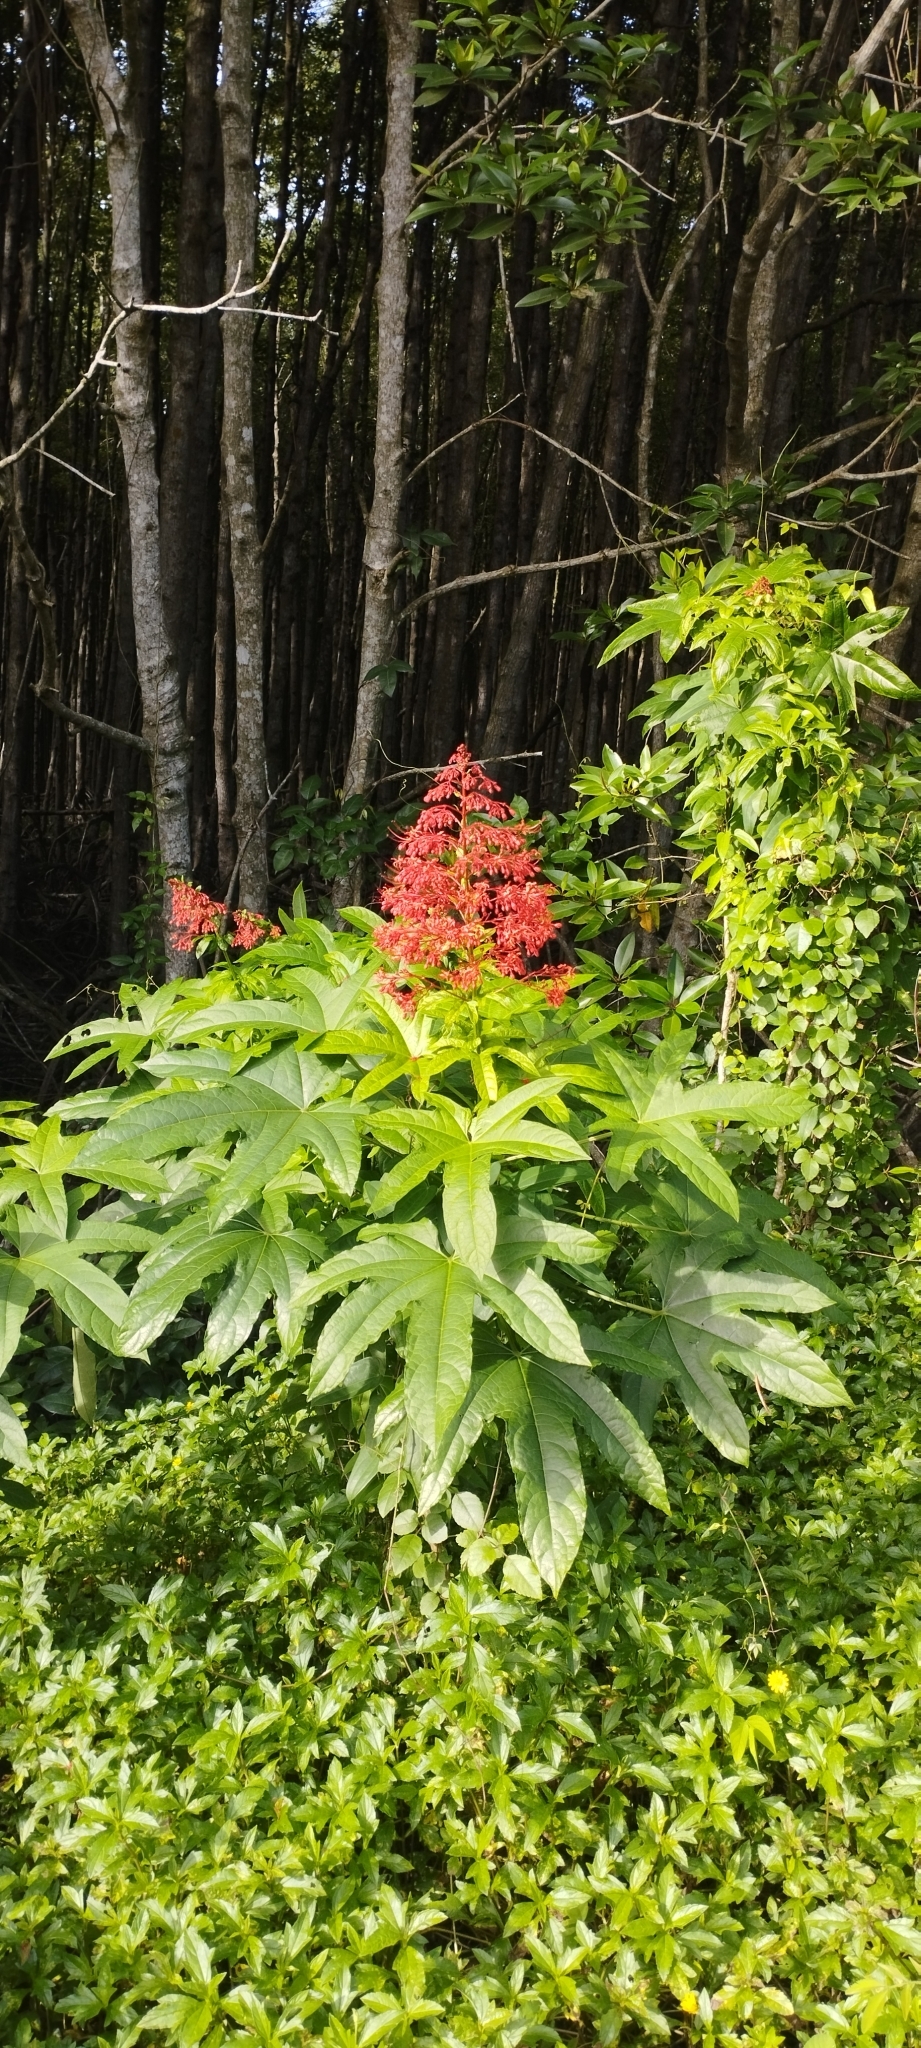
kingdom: Plantae
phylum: Tracheophyta
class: Magnoliopsida
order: Lamiales
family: Lamiaceae
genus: Clerodendrum
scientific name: Clerodendrum palmatolobatum
